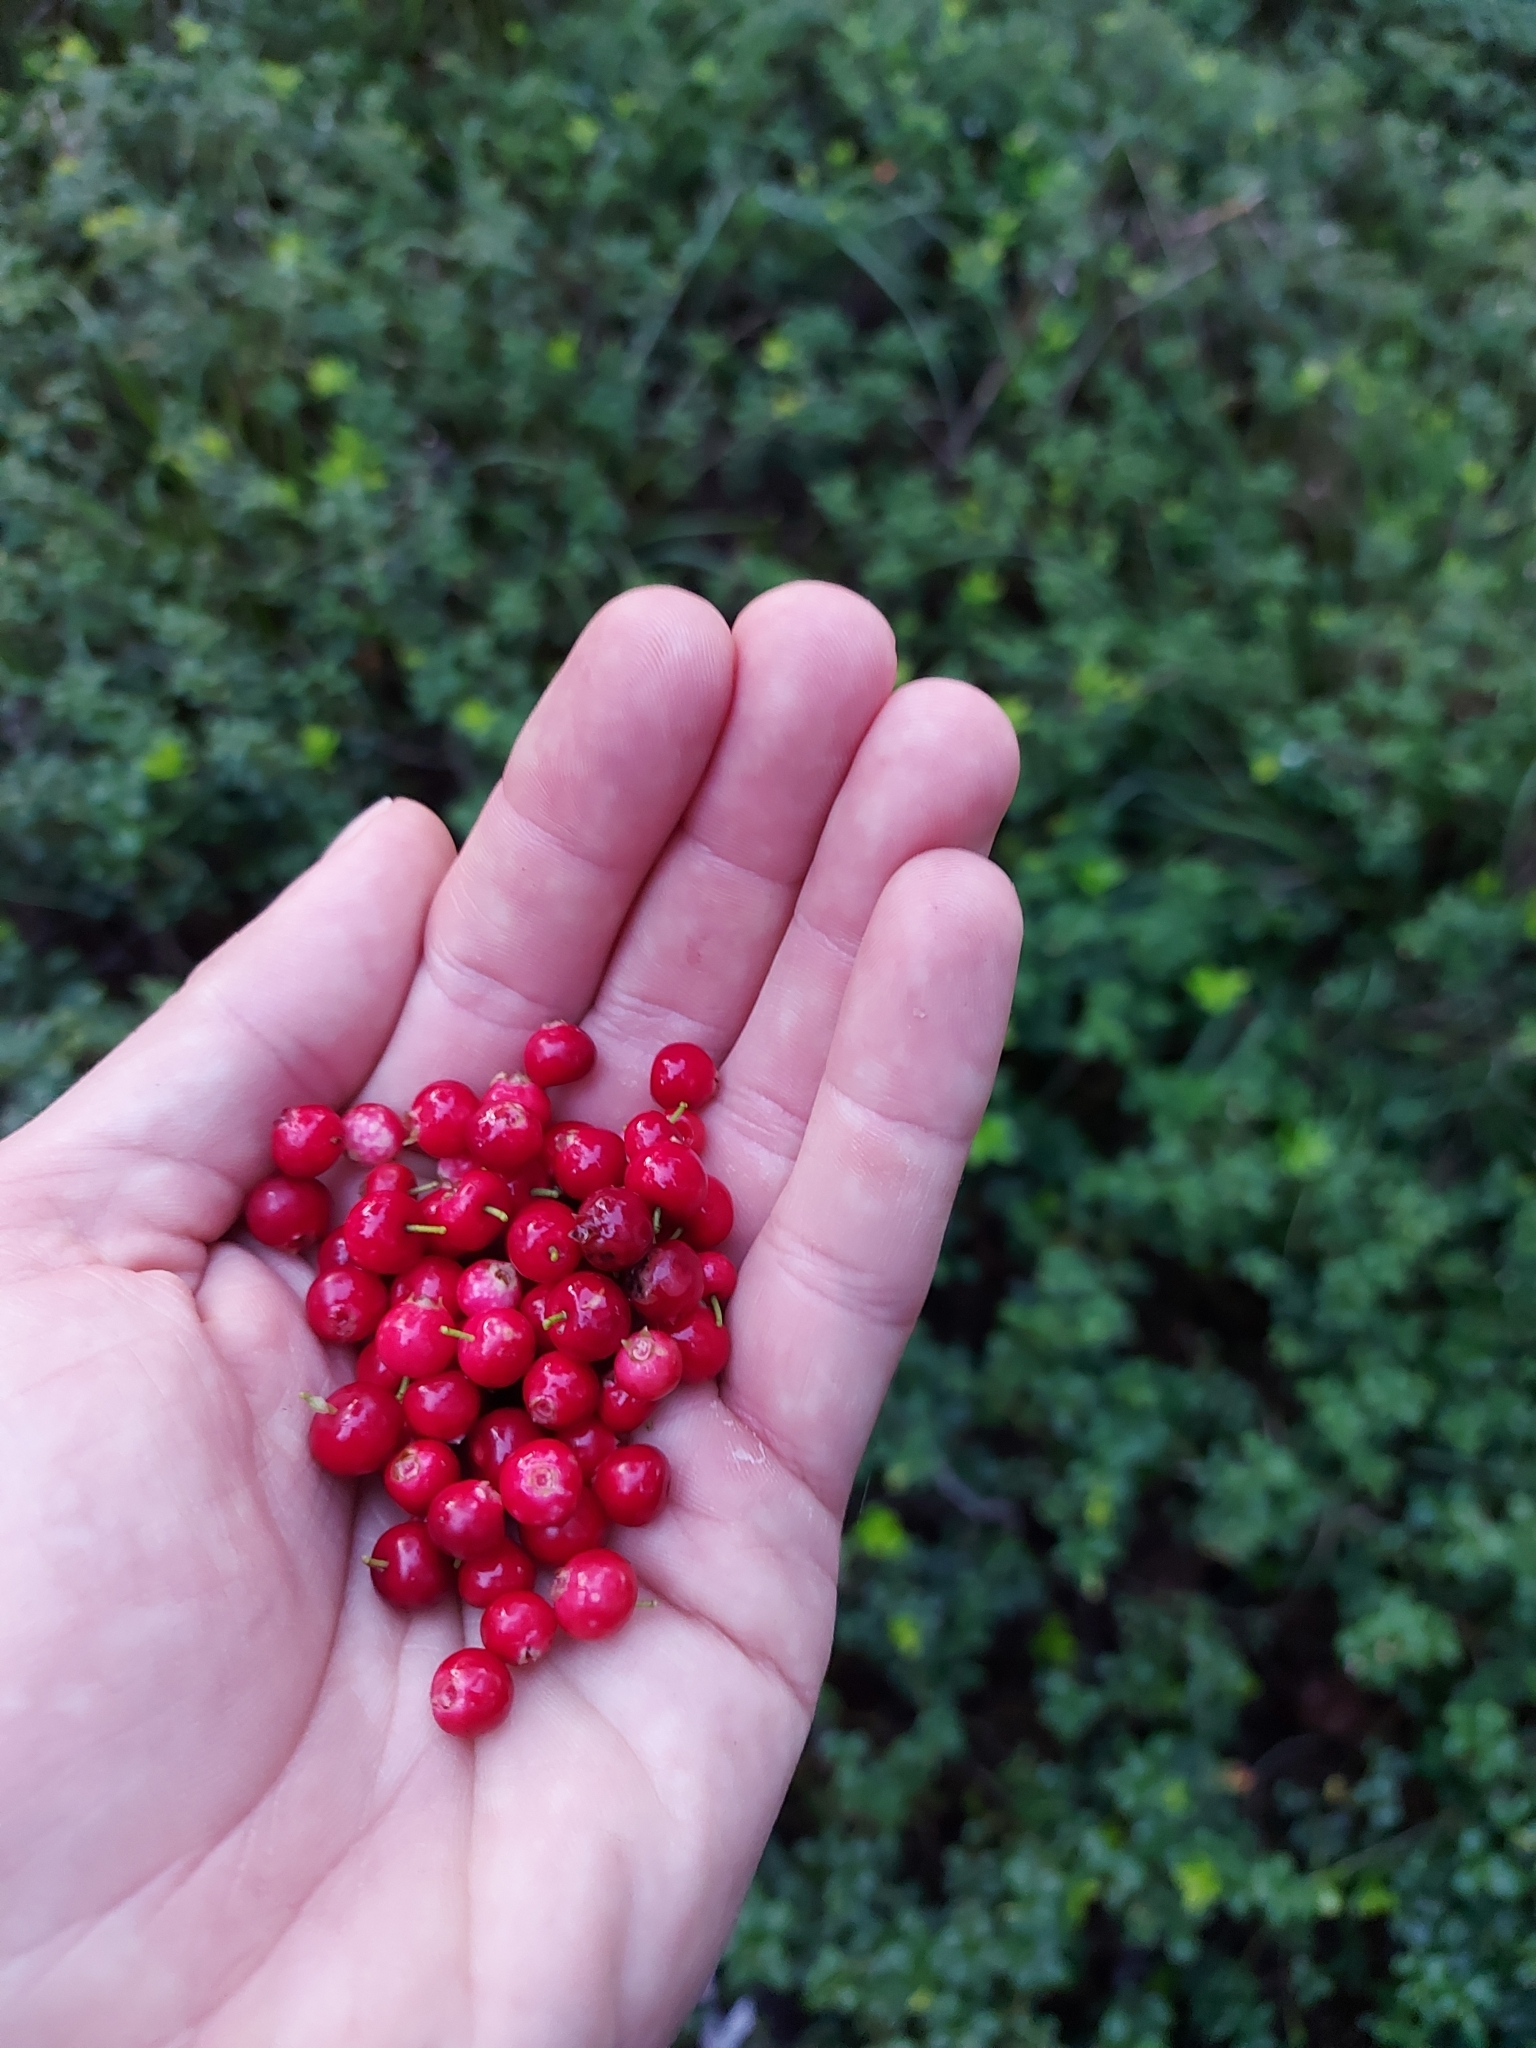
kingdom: Plantae
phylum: Tracheophyta
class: Magnoliopsida
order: Ericales
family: Ericaceae
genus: Vaccinium
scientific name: Vaccinium vitis-idaea
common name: Cowberry
